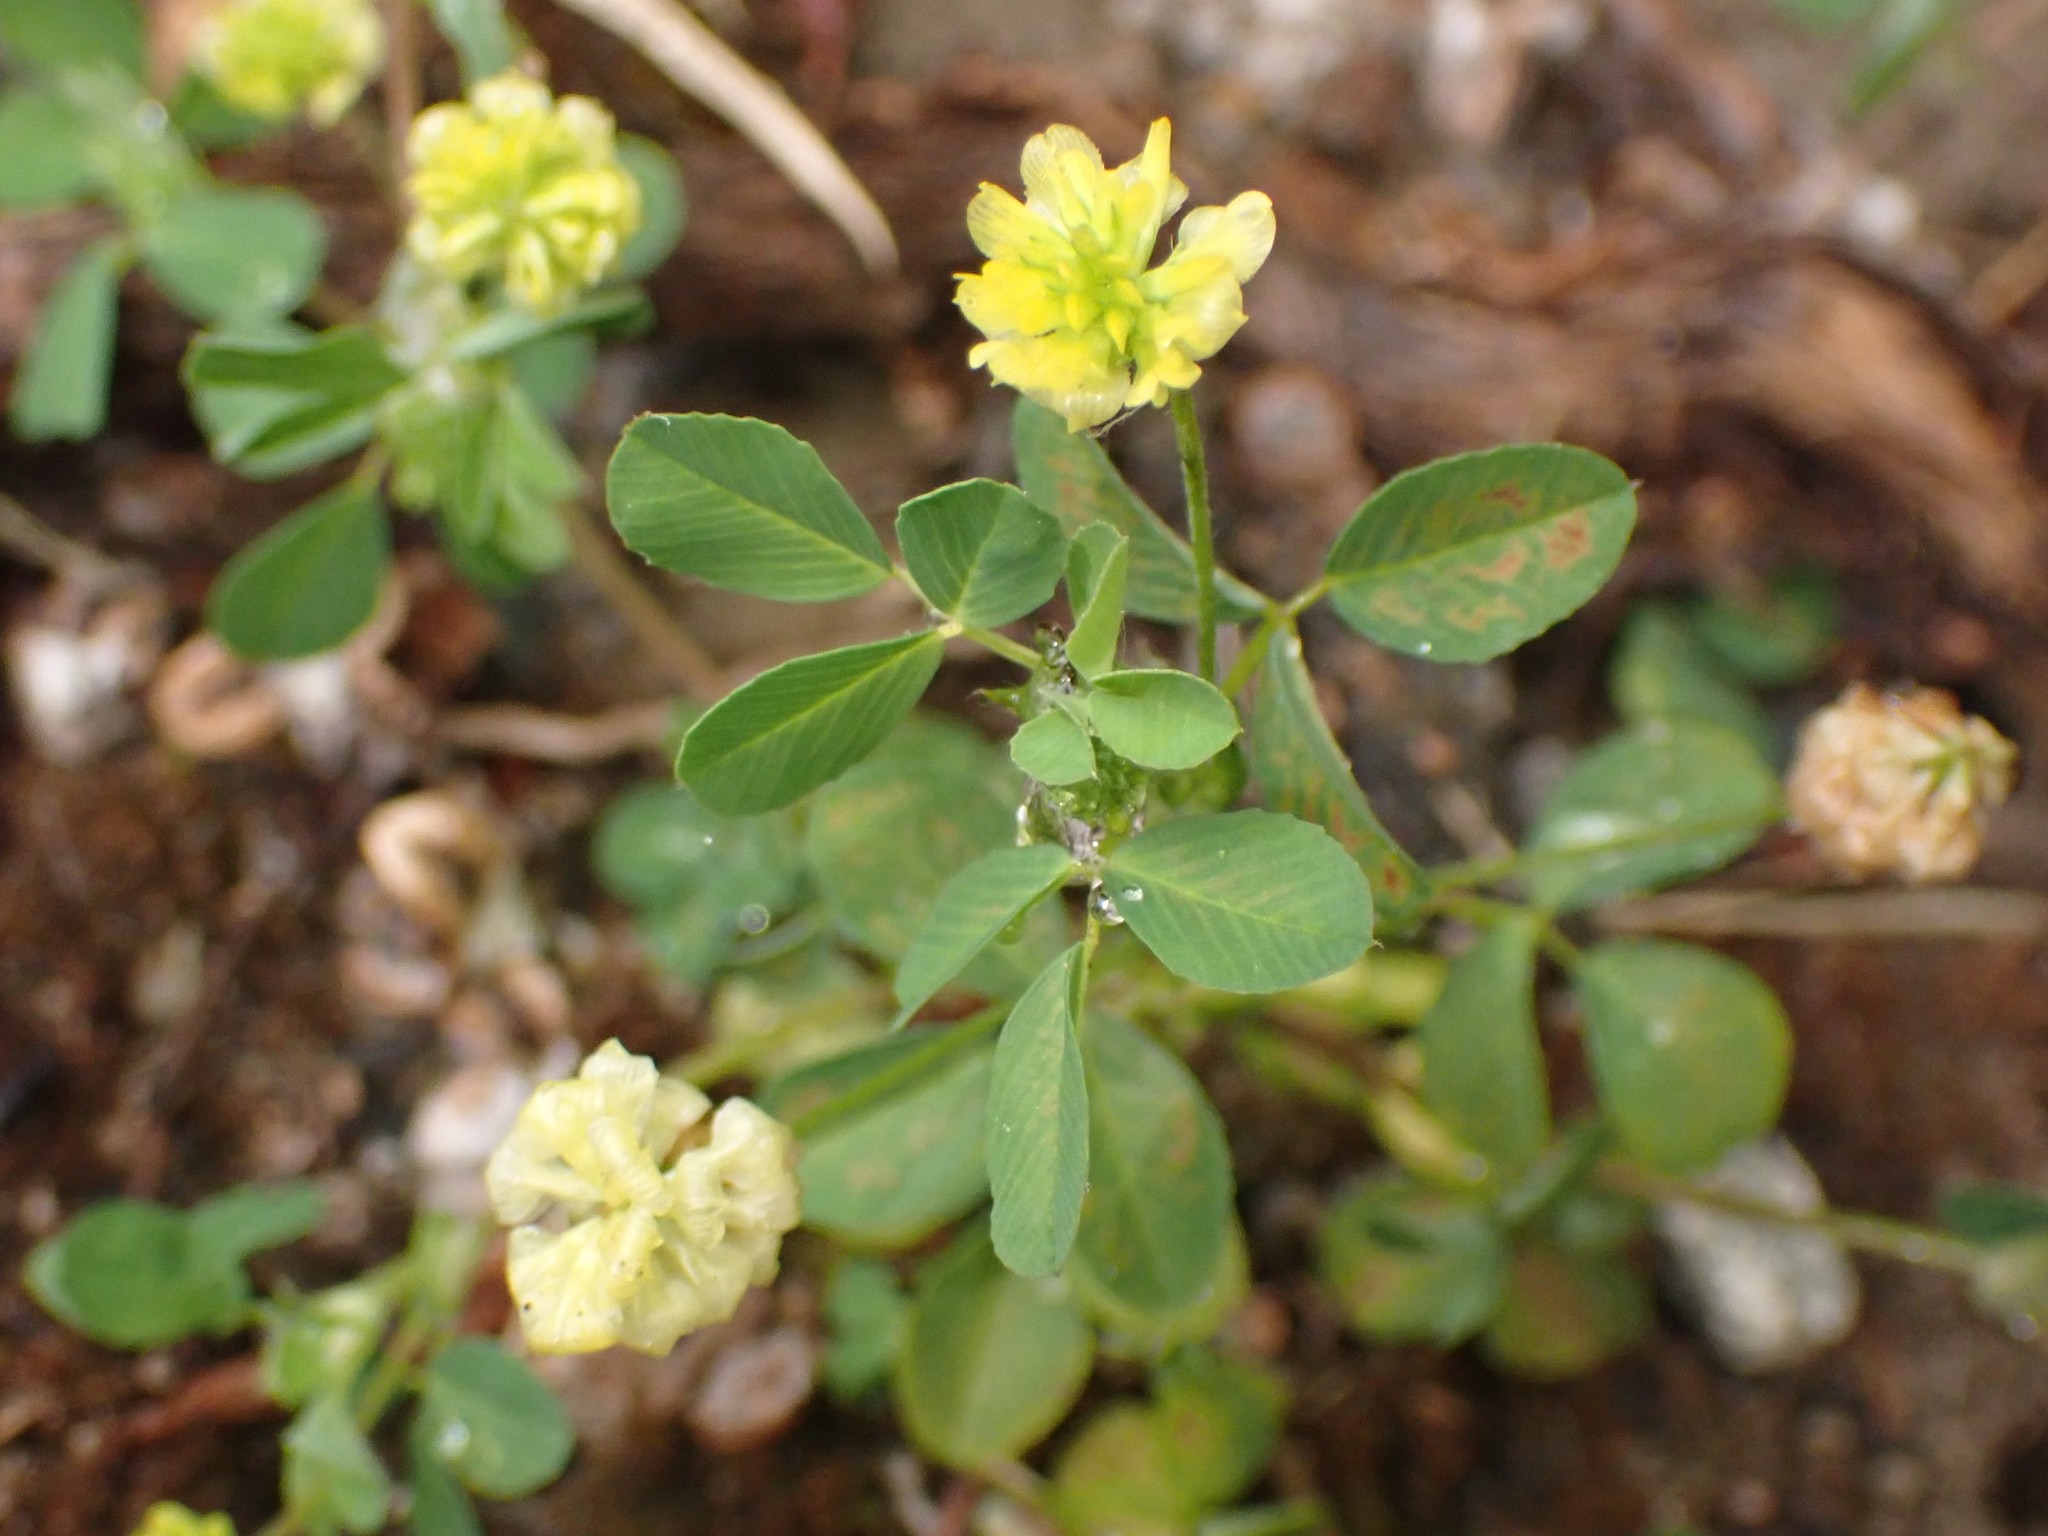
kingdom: Plantae
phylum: Tracheophyta
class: Magnoliopsida
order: Fabales
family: Fabaceae
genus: Trifolium
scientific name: Trifolium campestre
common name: Field clover
